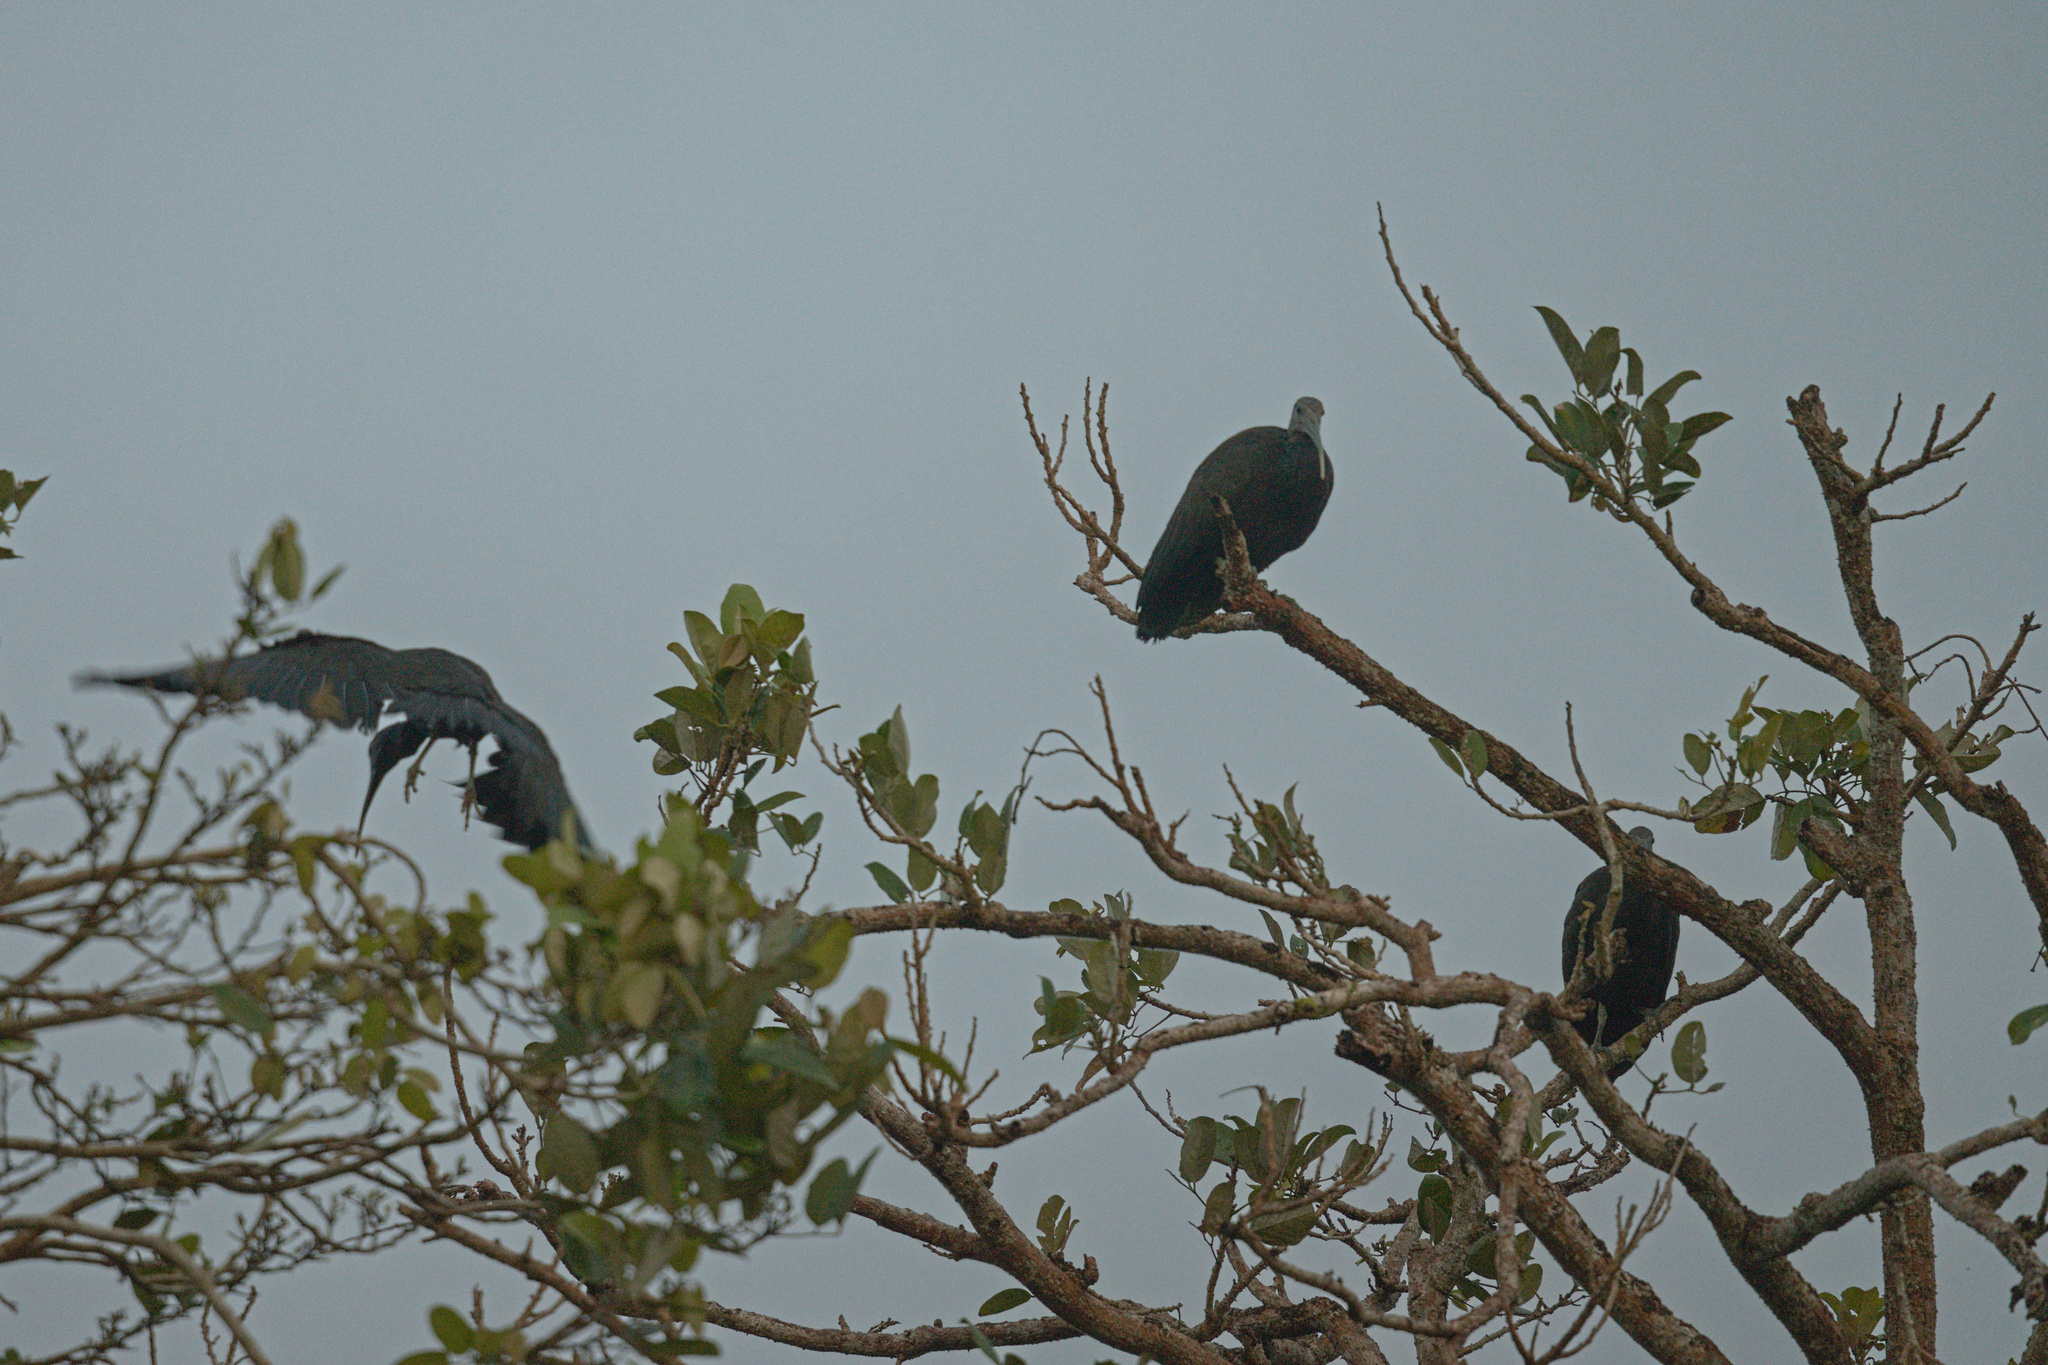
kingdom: Animalia
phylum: Chordata
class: Aves
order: Pelecaniformes
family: Threskiornithidae
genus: Mesembrinibis
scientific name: Mesembrinibis cayennensis
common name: Green ibis
